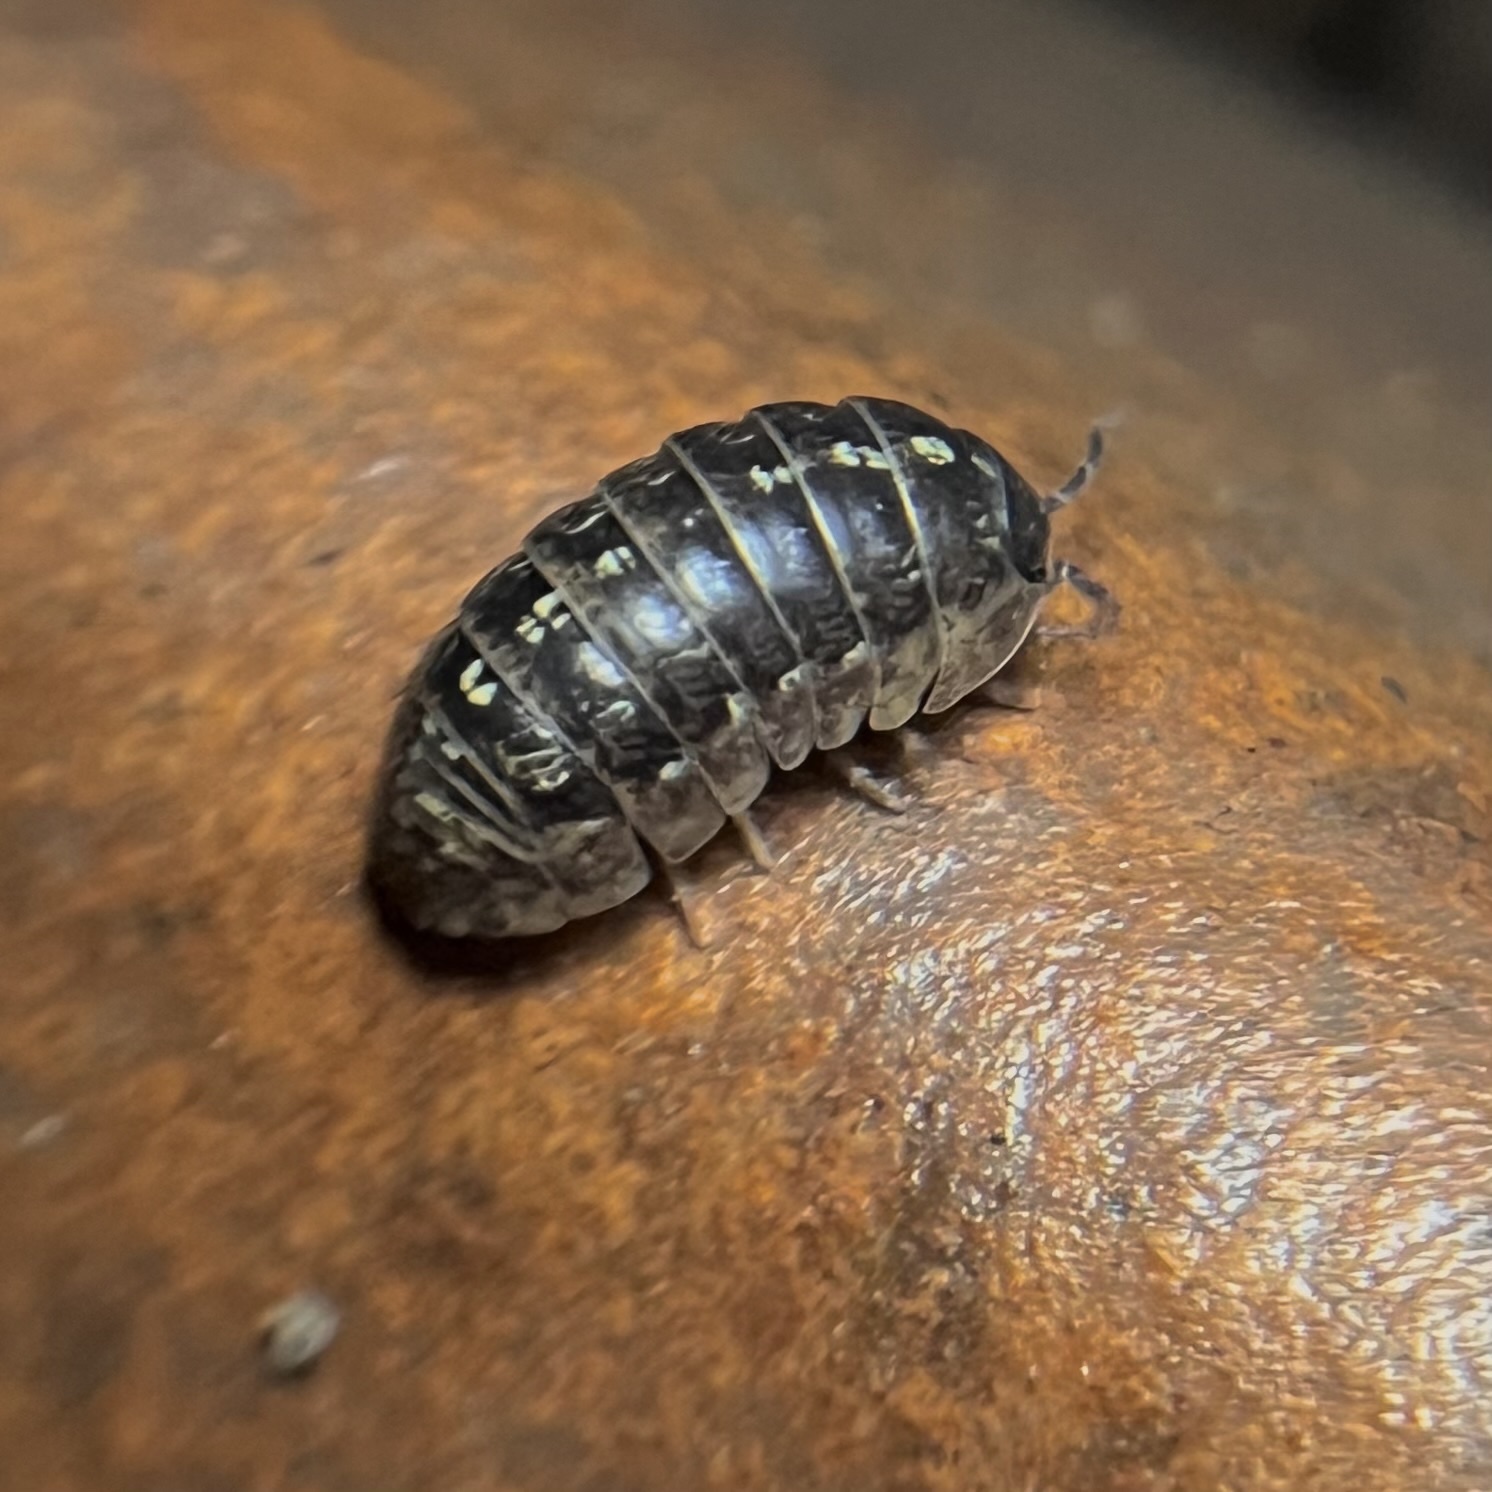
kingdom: Animalia
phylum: Arthropoda
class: Malacostraca
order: Isopoda
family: Armadillidiidae
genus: Armadillidium
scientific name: Armadillidium vulgare
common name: Common pill woodlouse
